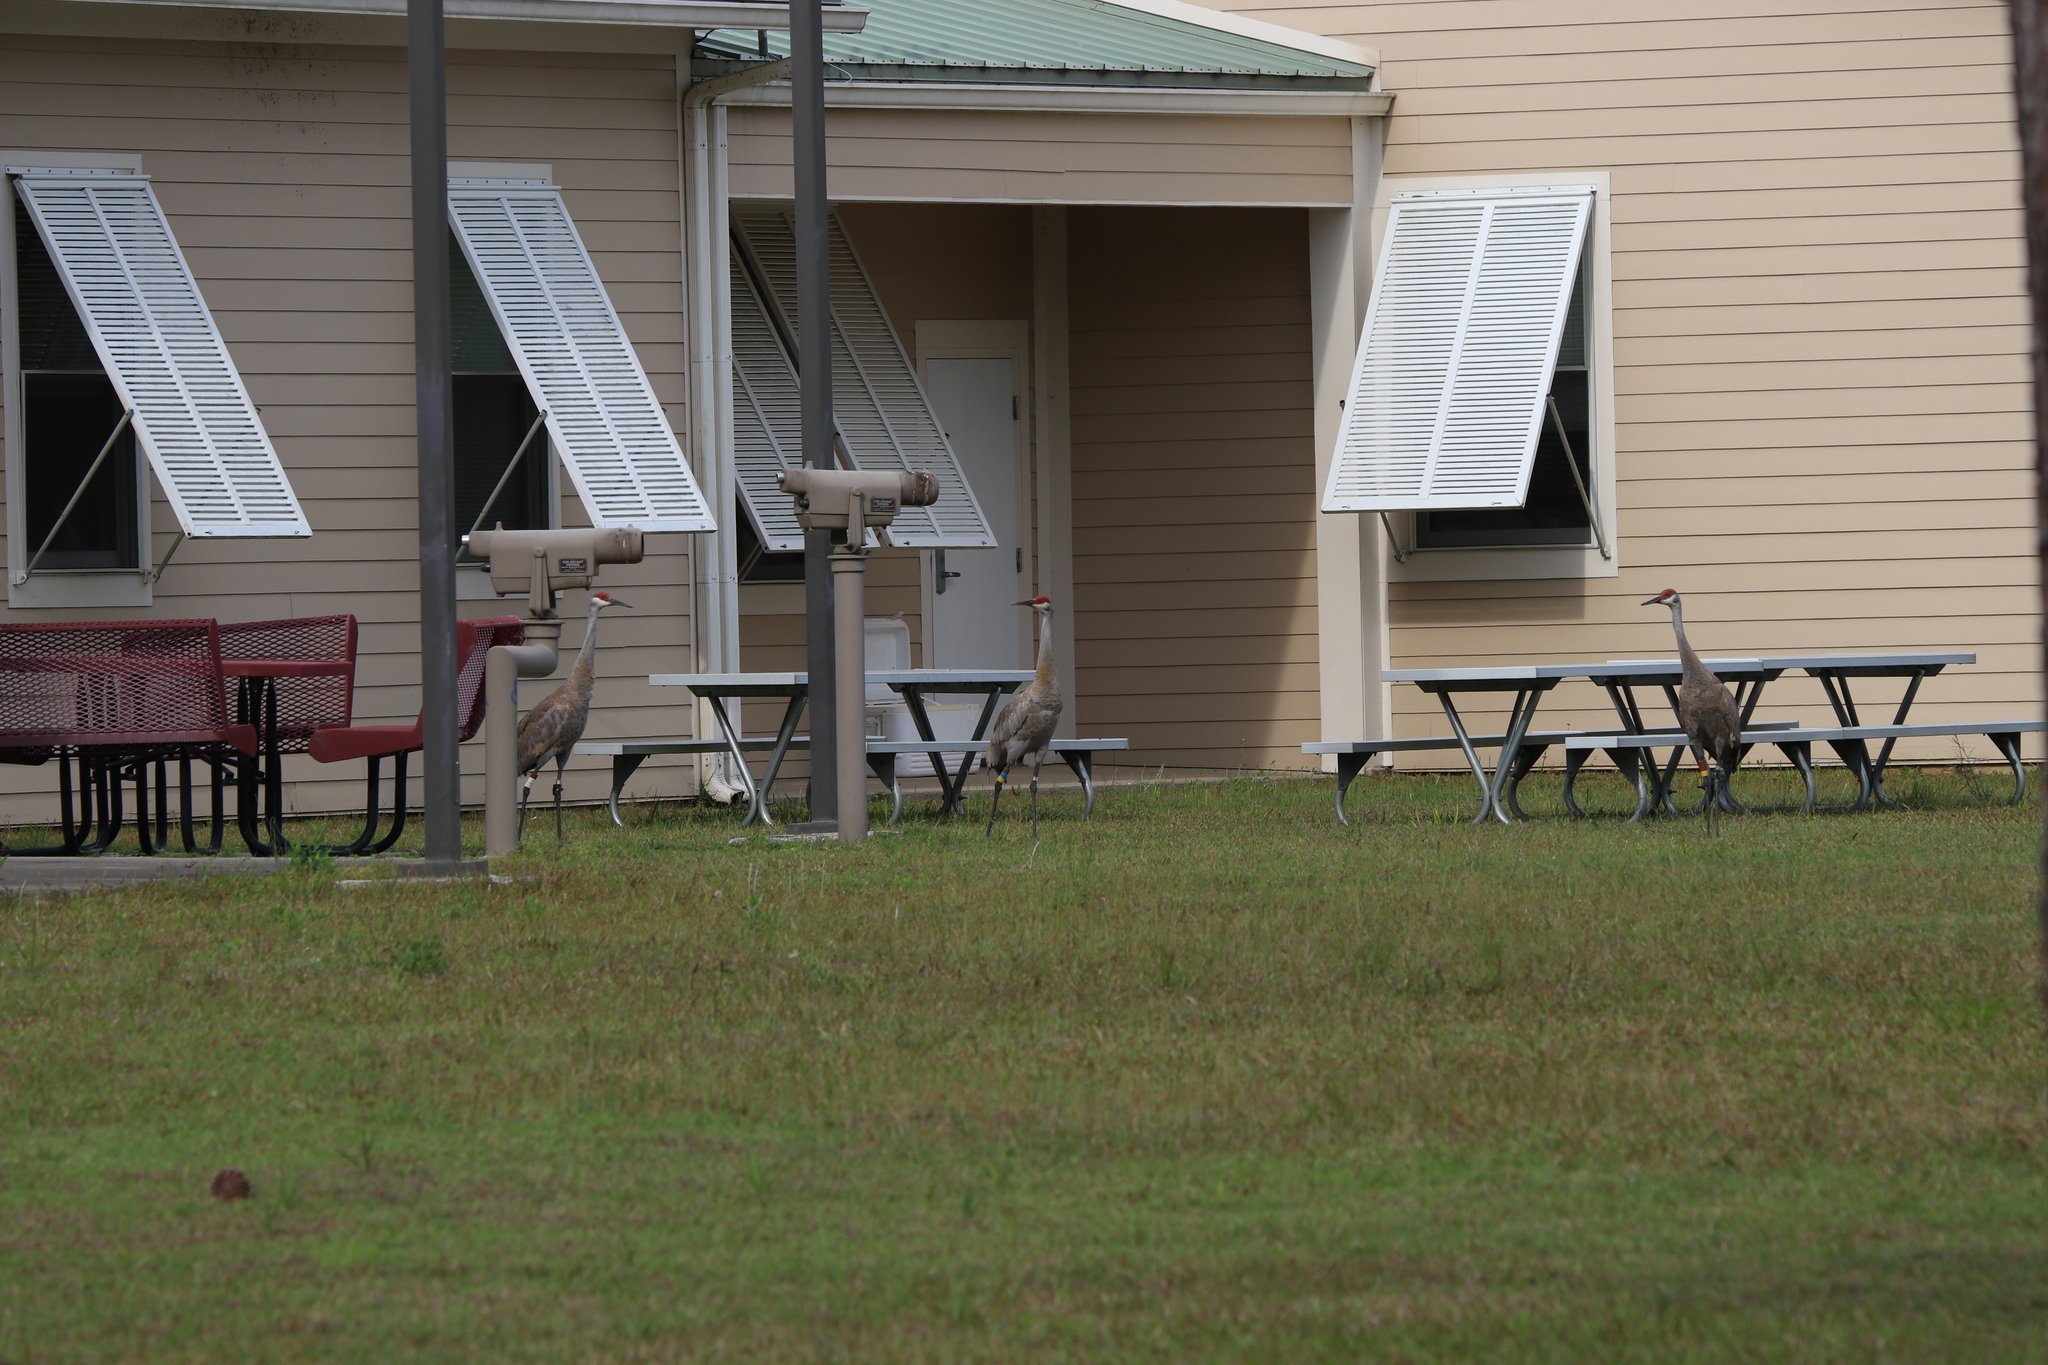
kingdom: Animalia
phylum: Chordata
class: Aves
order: Gruiformes
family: Gruidae
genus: Grus
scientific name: Grus canadensis
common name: Sandhill crane
